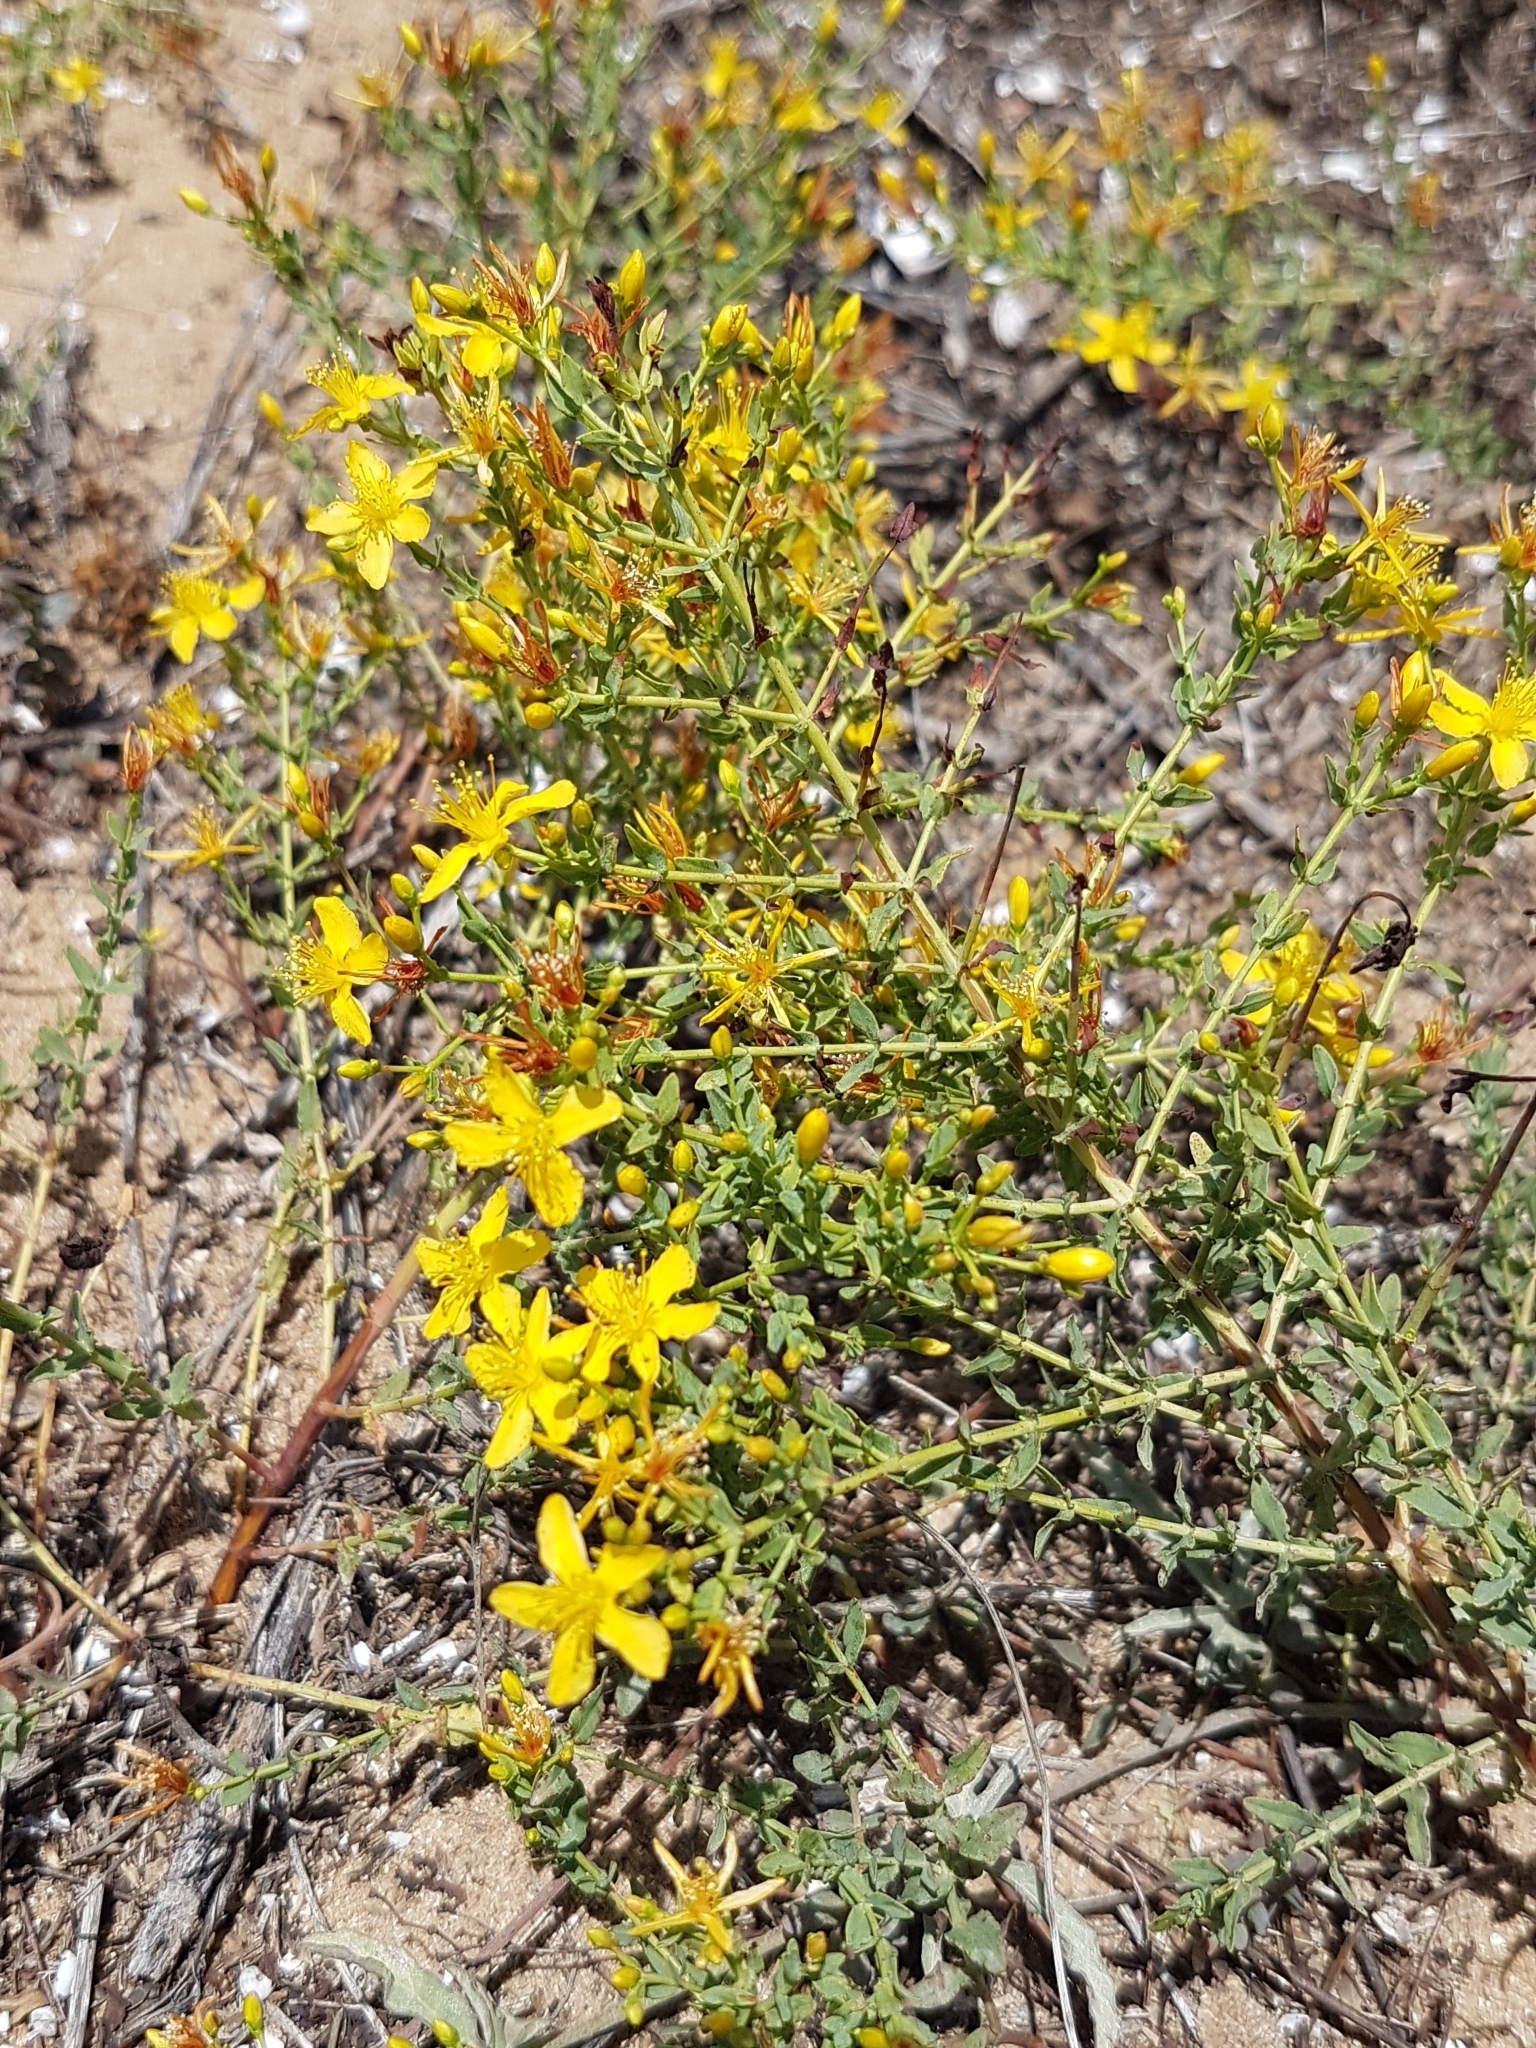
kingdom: Plantae
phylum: Tracheophyta
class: Magnoliopsida
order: Malpighiales
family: Hypericaceae
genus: Hypericum
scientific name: Hypericum triquetrifolium
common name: Tangled hypericum
